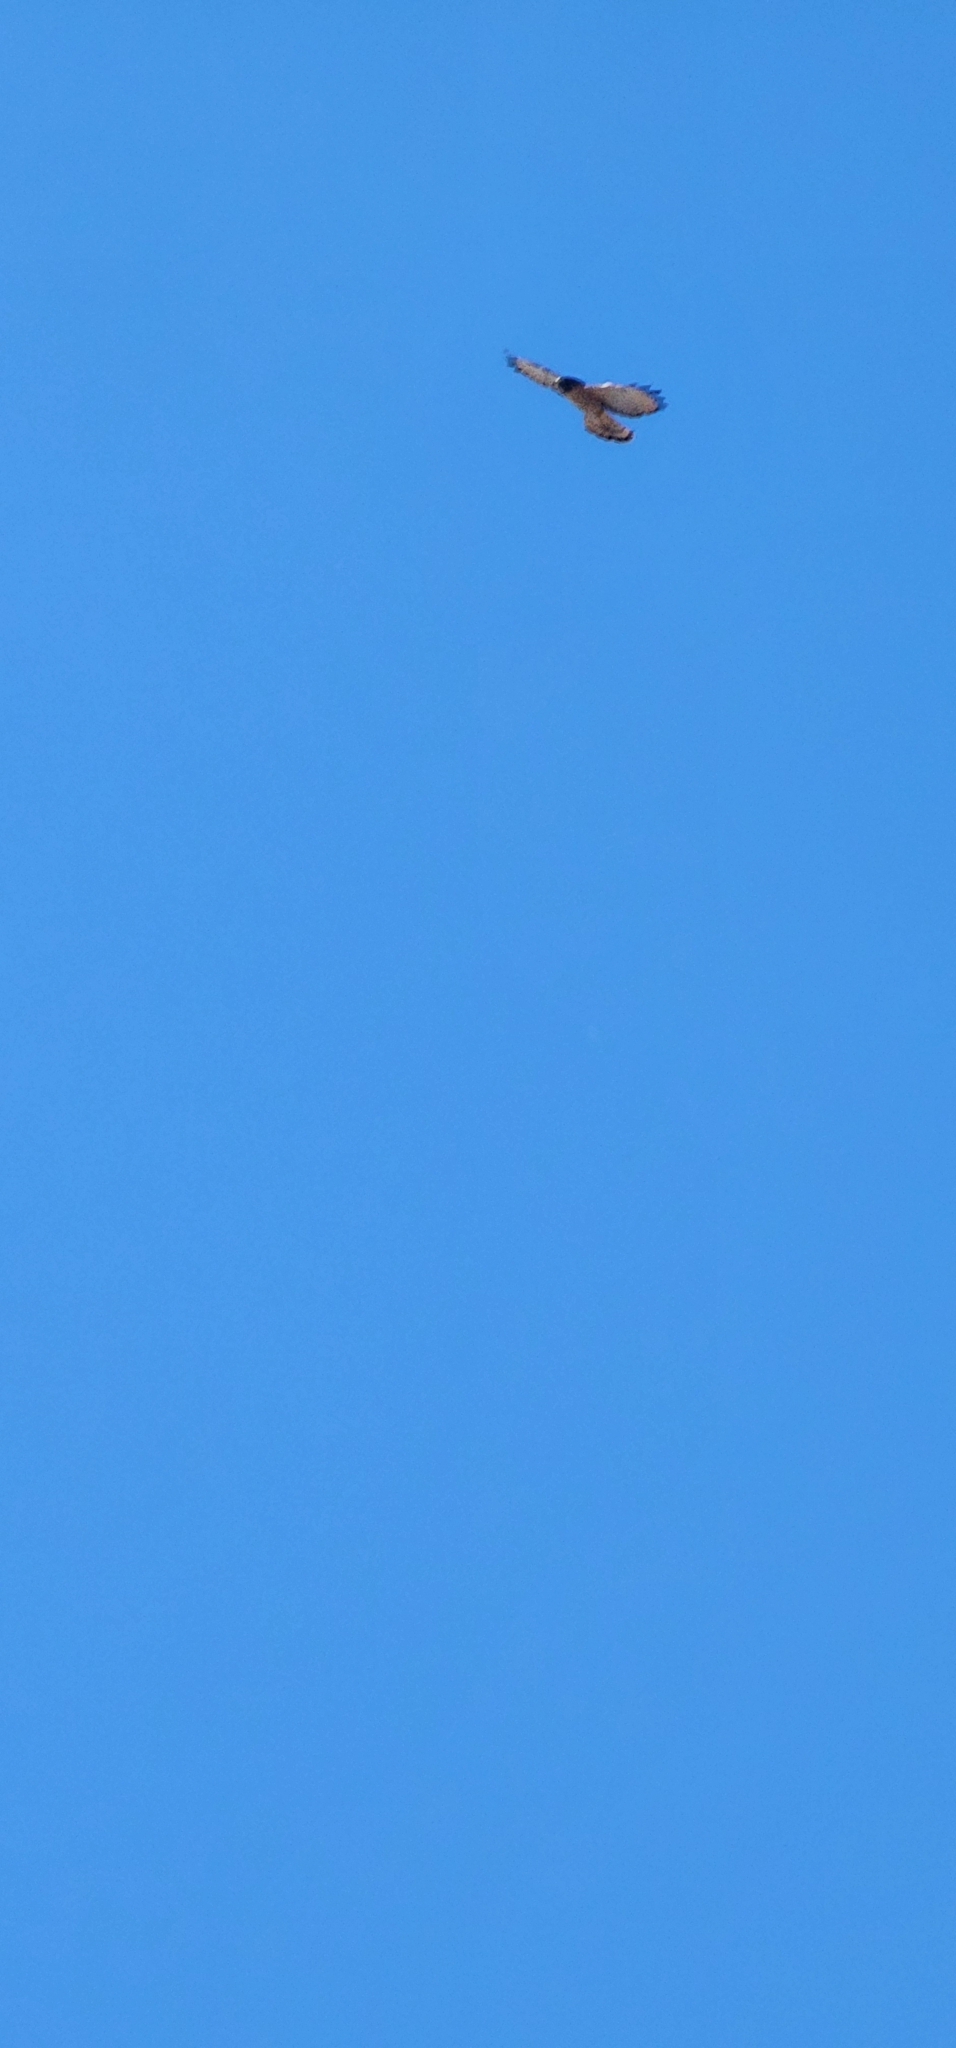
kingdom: Animalia
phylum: Chordata
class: Aves
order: Accipitriformes
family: Accipitridae
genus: Rupornis
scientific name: Rupornis magnirostris
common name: Roadside hawk
